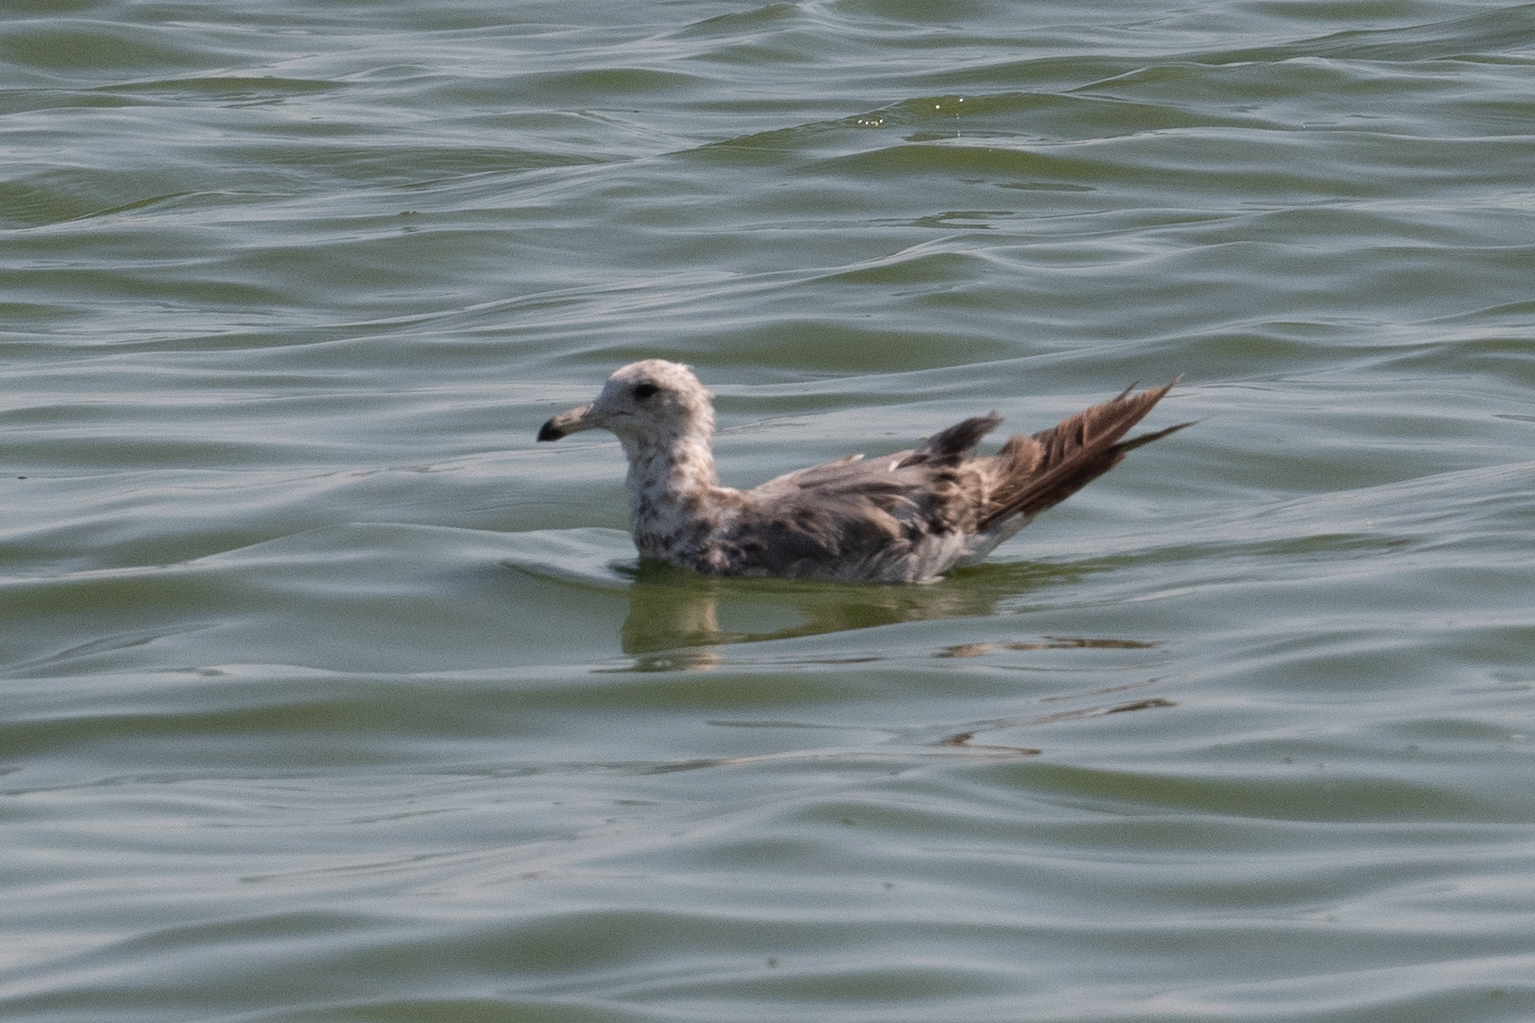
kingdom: Animalia
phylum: Chordata
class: Aves
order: Charadriiformes
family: Laridae
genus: Larus
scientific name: Larus californicus
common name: California gull
